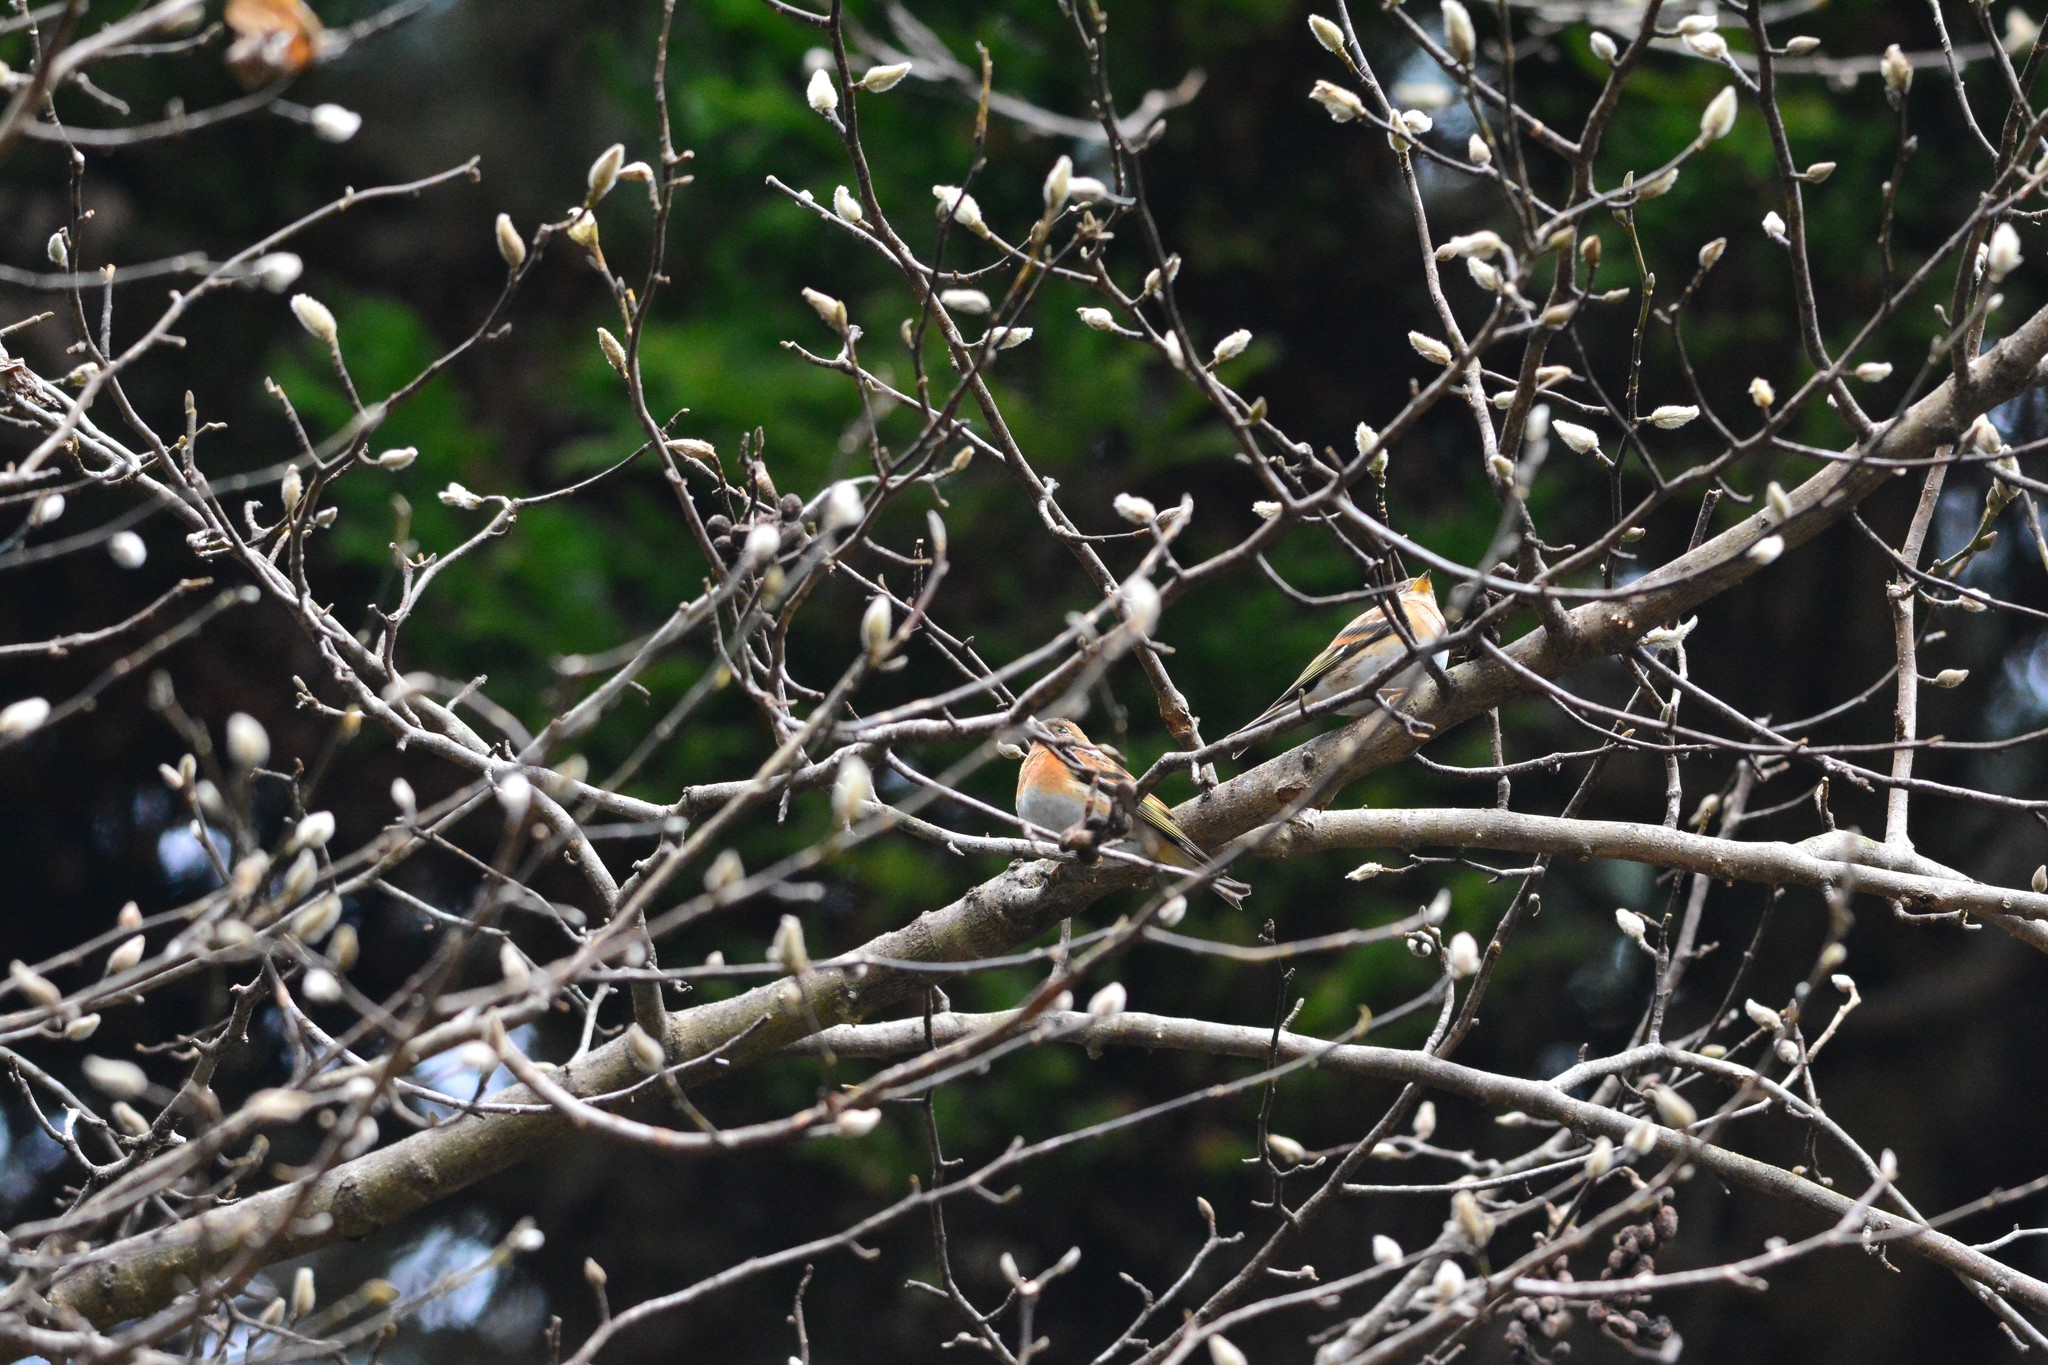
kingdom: Animalia
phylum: Chordata
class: Aves
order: Passeriformes
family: Fringillidae
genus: Fringilla
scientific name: Fringilla montifringilla
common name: Brambling
